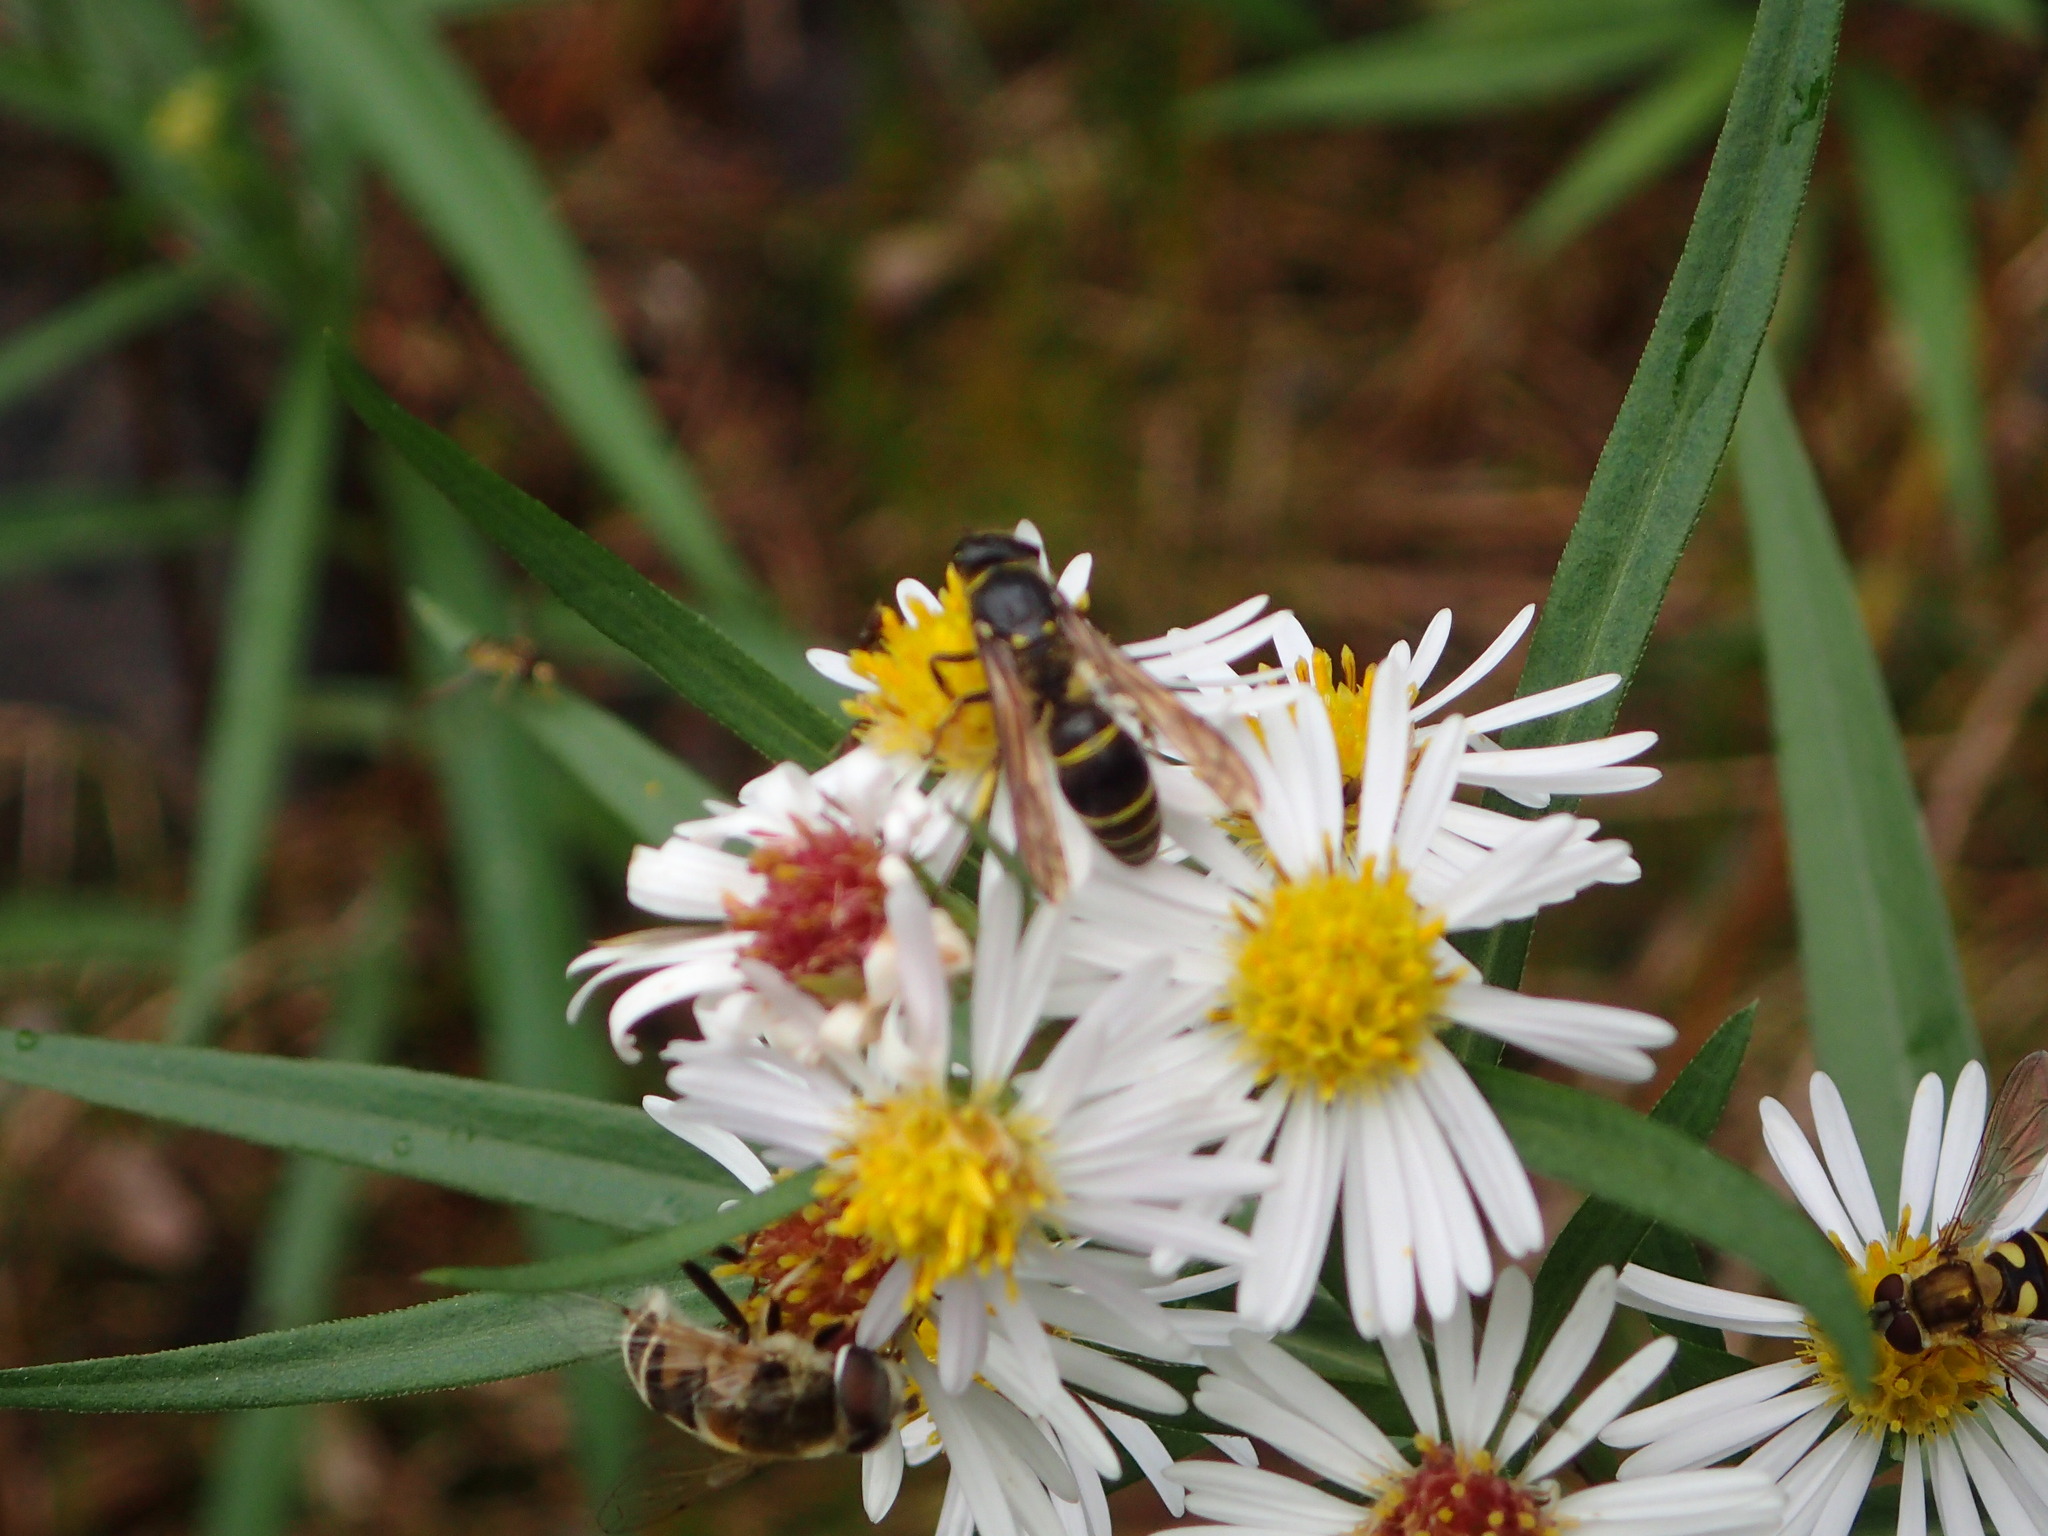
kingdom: Animalia
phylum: Arthropoda
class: Insecta
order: Hymenoptera
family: Vespidae
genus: Ancistrocerus
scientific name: Ancistrocerus
